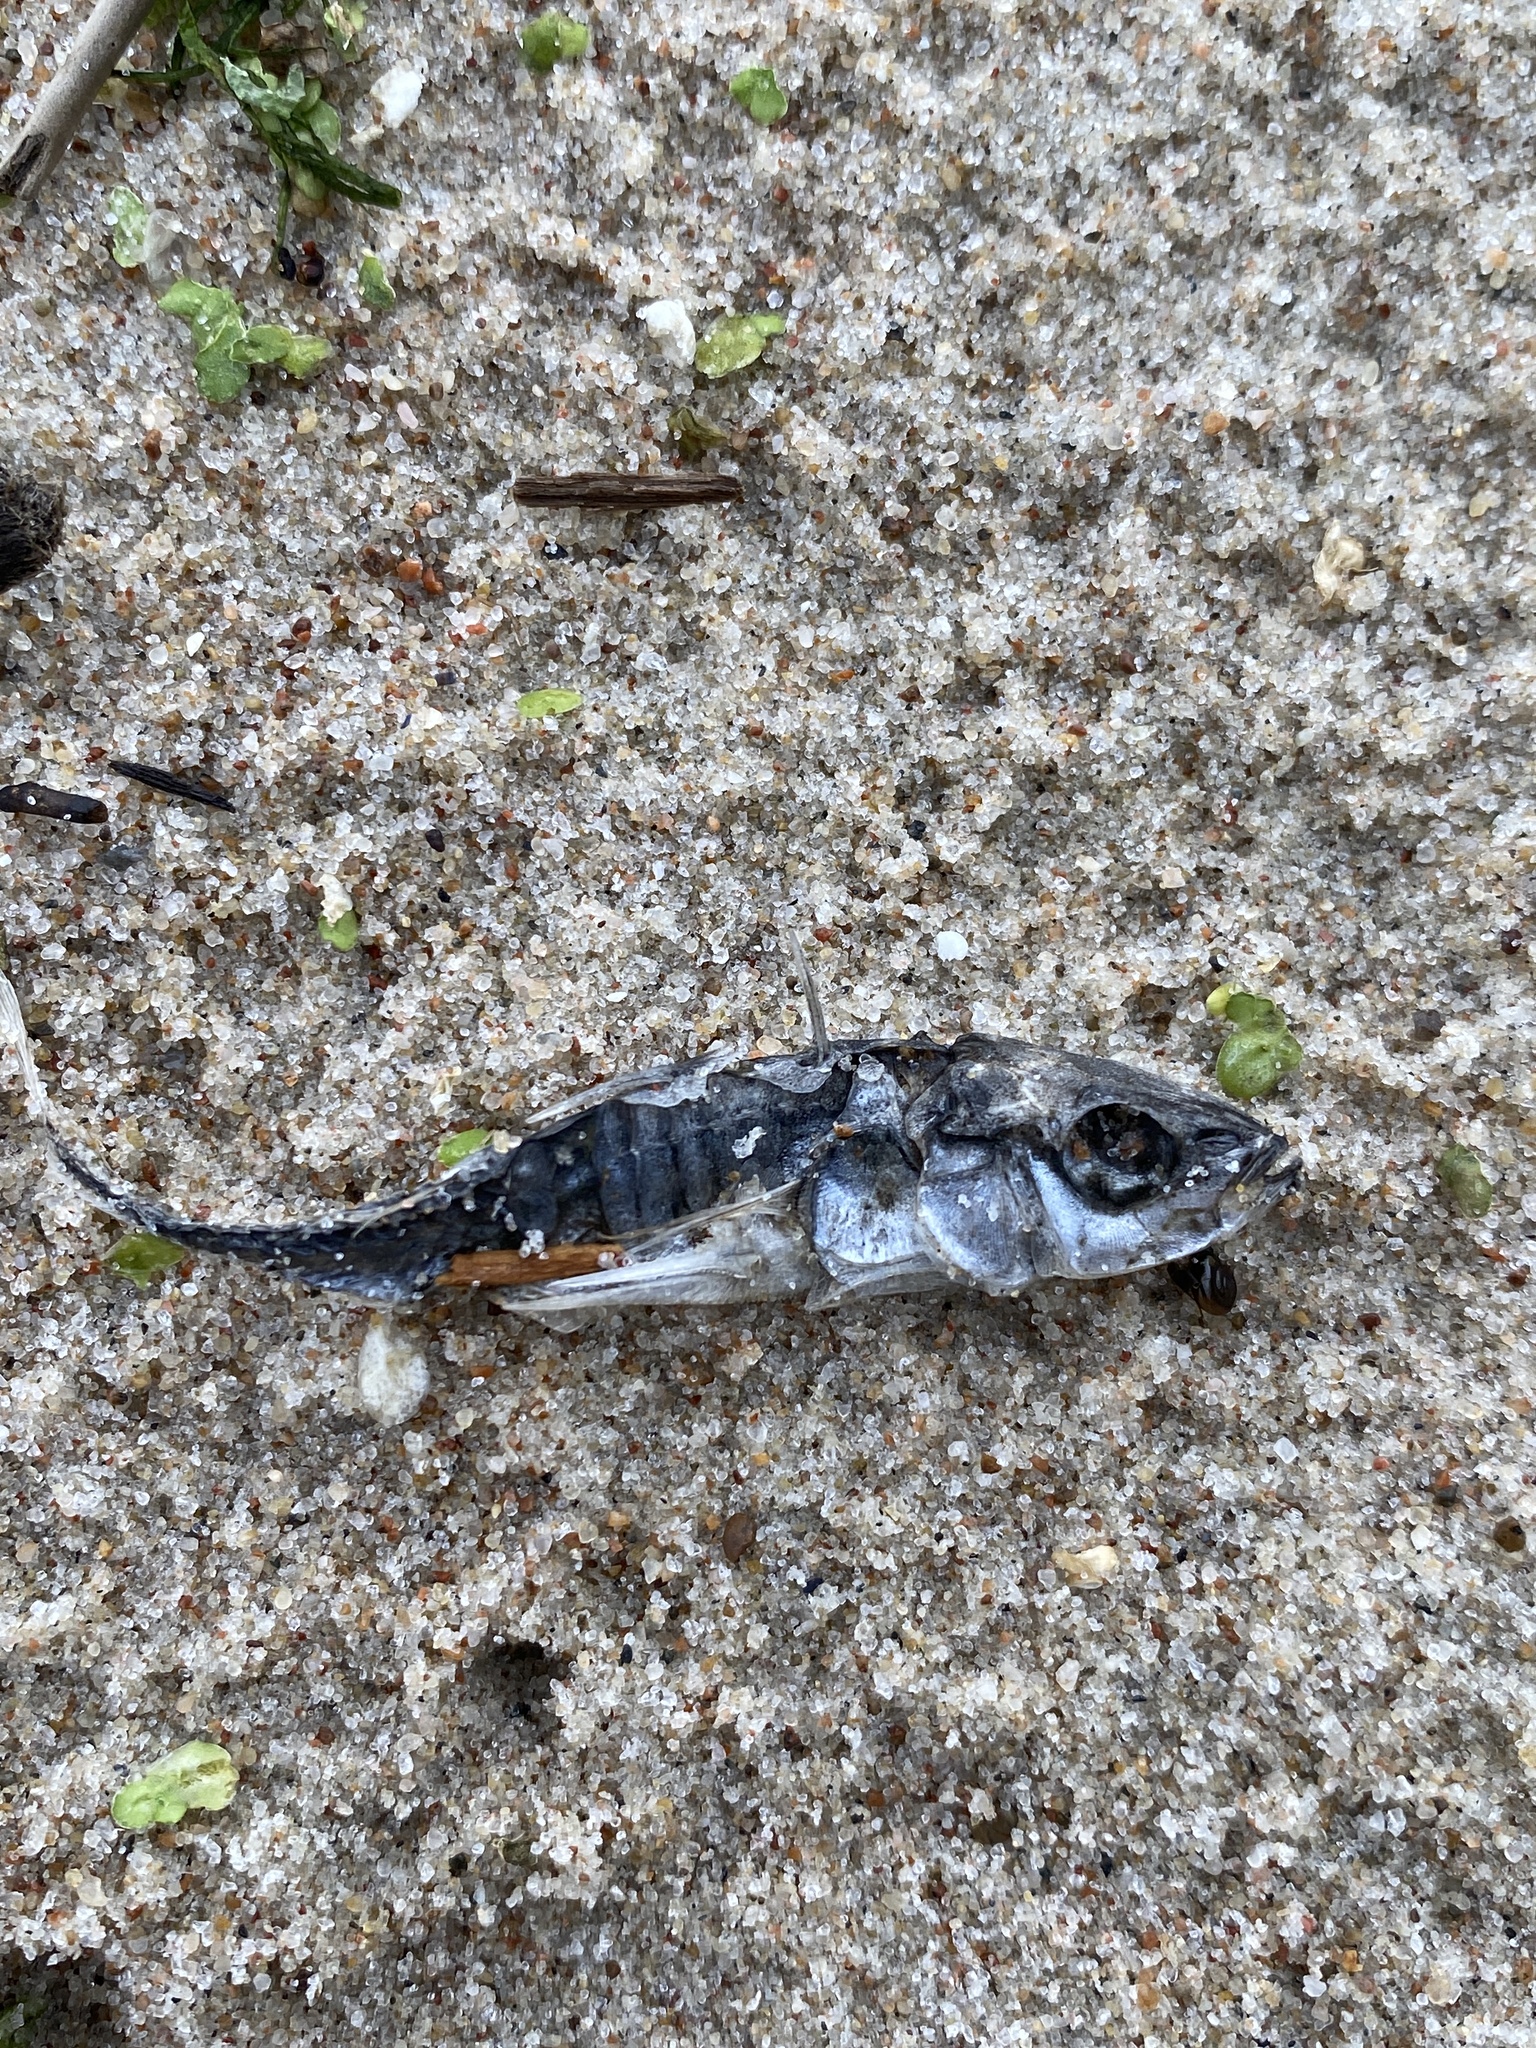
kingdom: Animalia
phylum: Chordata
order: Gasterosteiformes
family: Gasterosteidae
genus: Gasterosteus
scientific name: Gasterosteus aculeatus
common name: Three-spined stickleback
